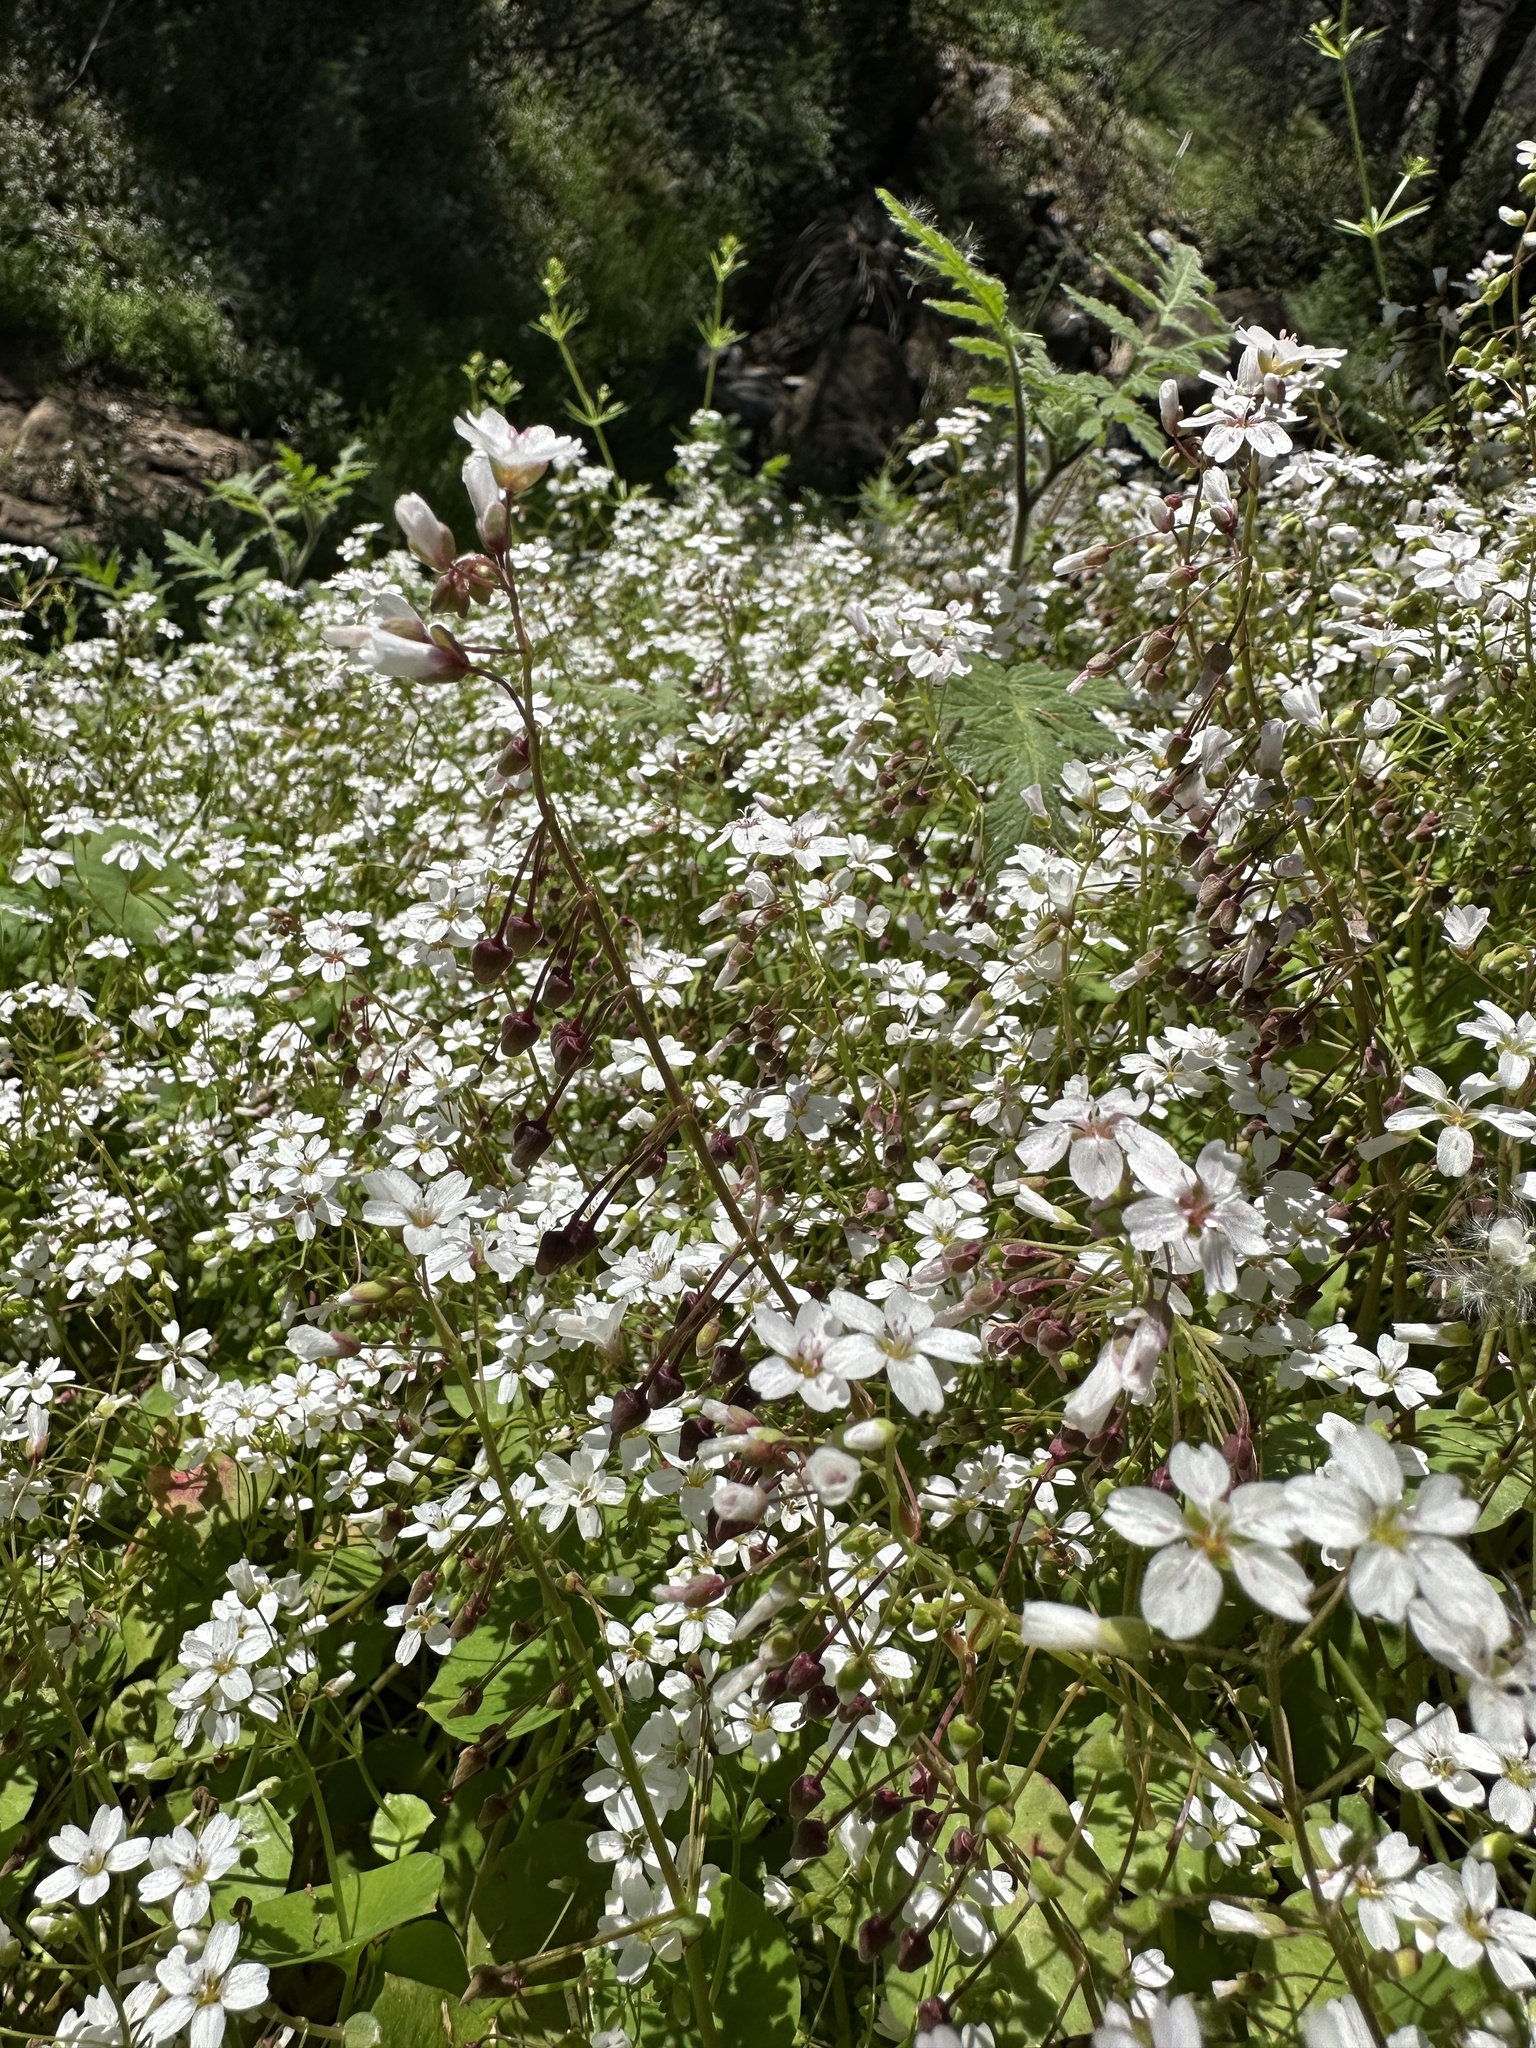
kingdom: Plantae
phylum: Tracheophyta
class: Magnoliopsida
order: Caryophyllales
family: Montiaceae
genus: Claytonia
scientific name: Claytonia parviflora
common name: Indian-lettuce
